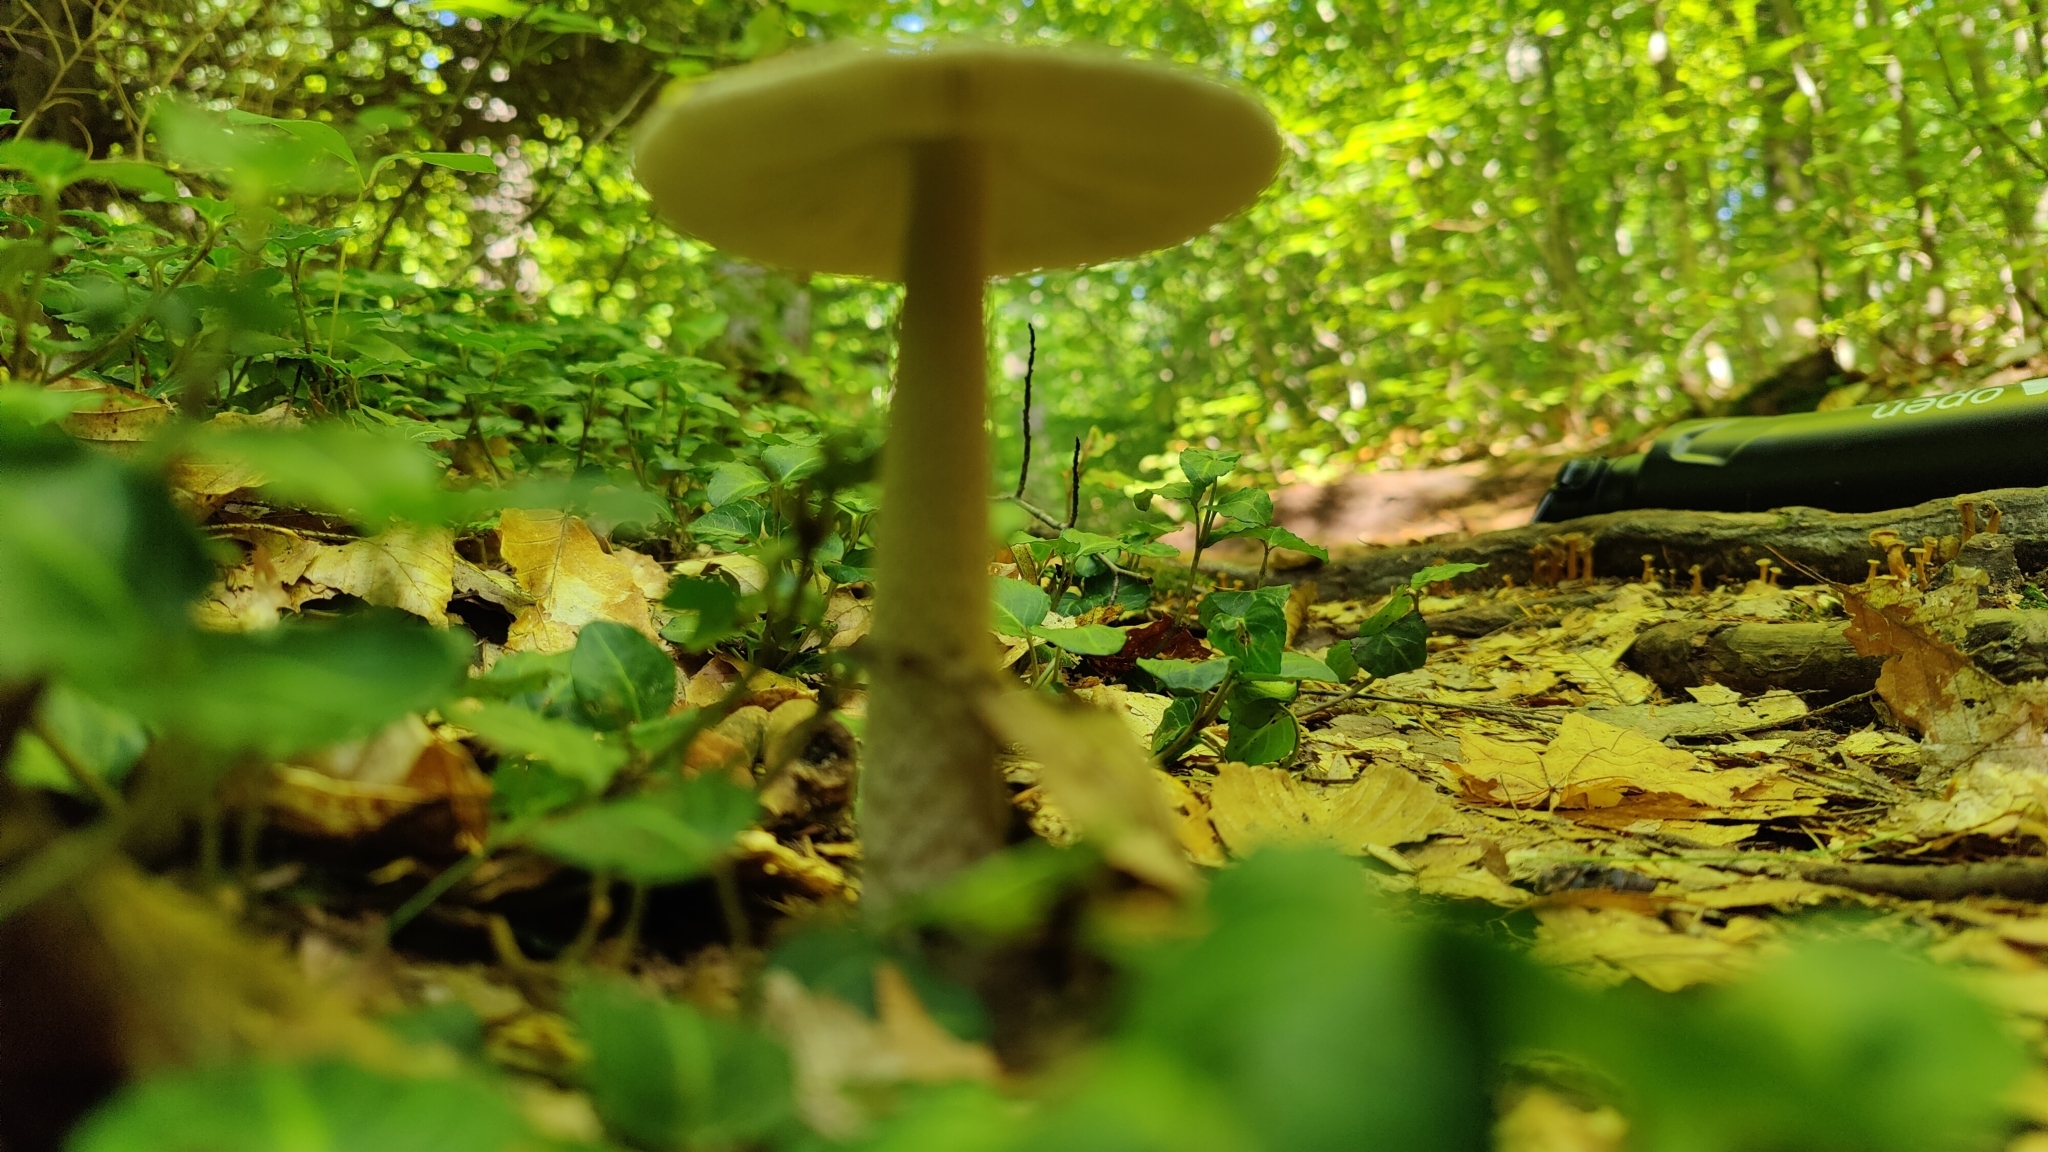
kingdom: Fungi
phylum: Basidiomycota
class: Agaricomycetes
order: Agaricales
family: Amanitaceae
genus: Amanita
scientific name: Amanita rhacopus
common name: Shaggy legged ringless amanita
